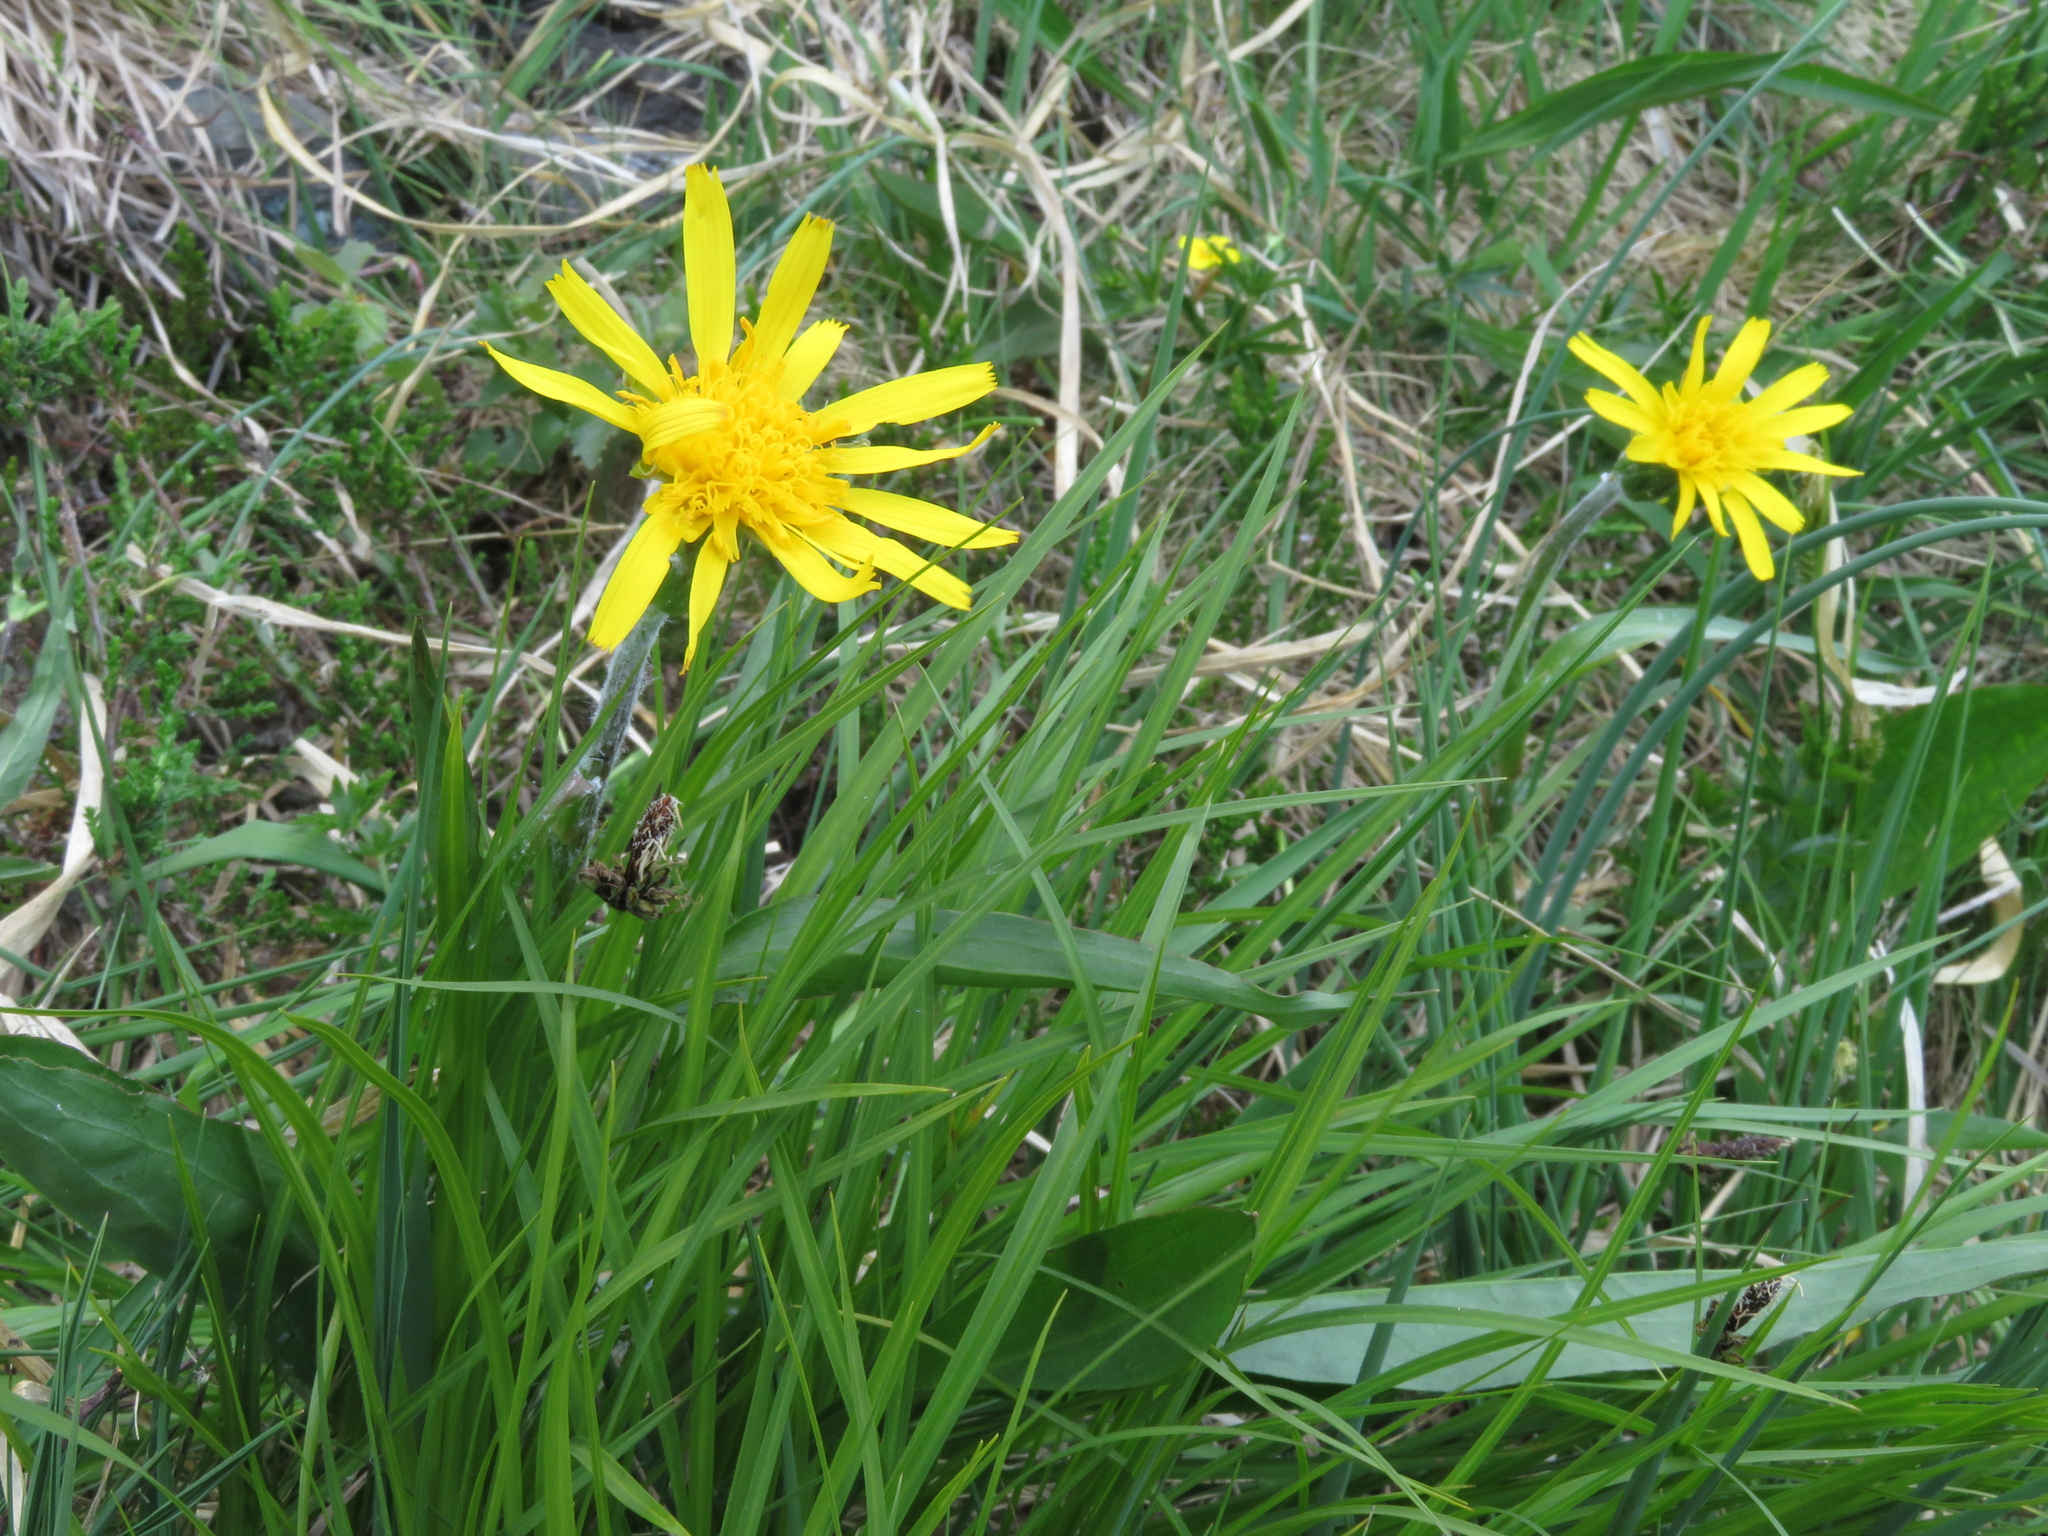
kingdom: Plantae
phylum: Tracheophyta
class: Magnoliopsida
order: Asterales
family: Asteraceae
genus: Scorzonera
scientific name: Scorzonera humilis
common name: Viper's-grass
